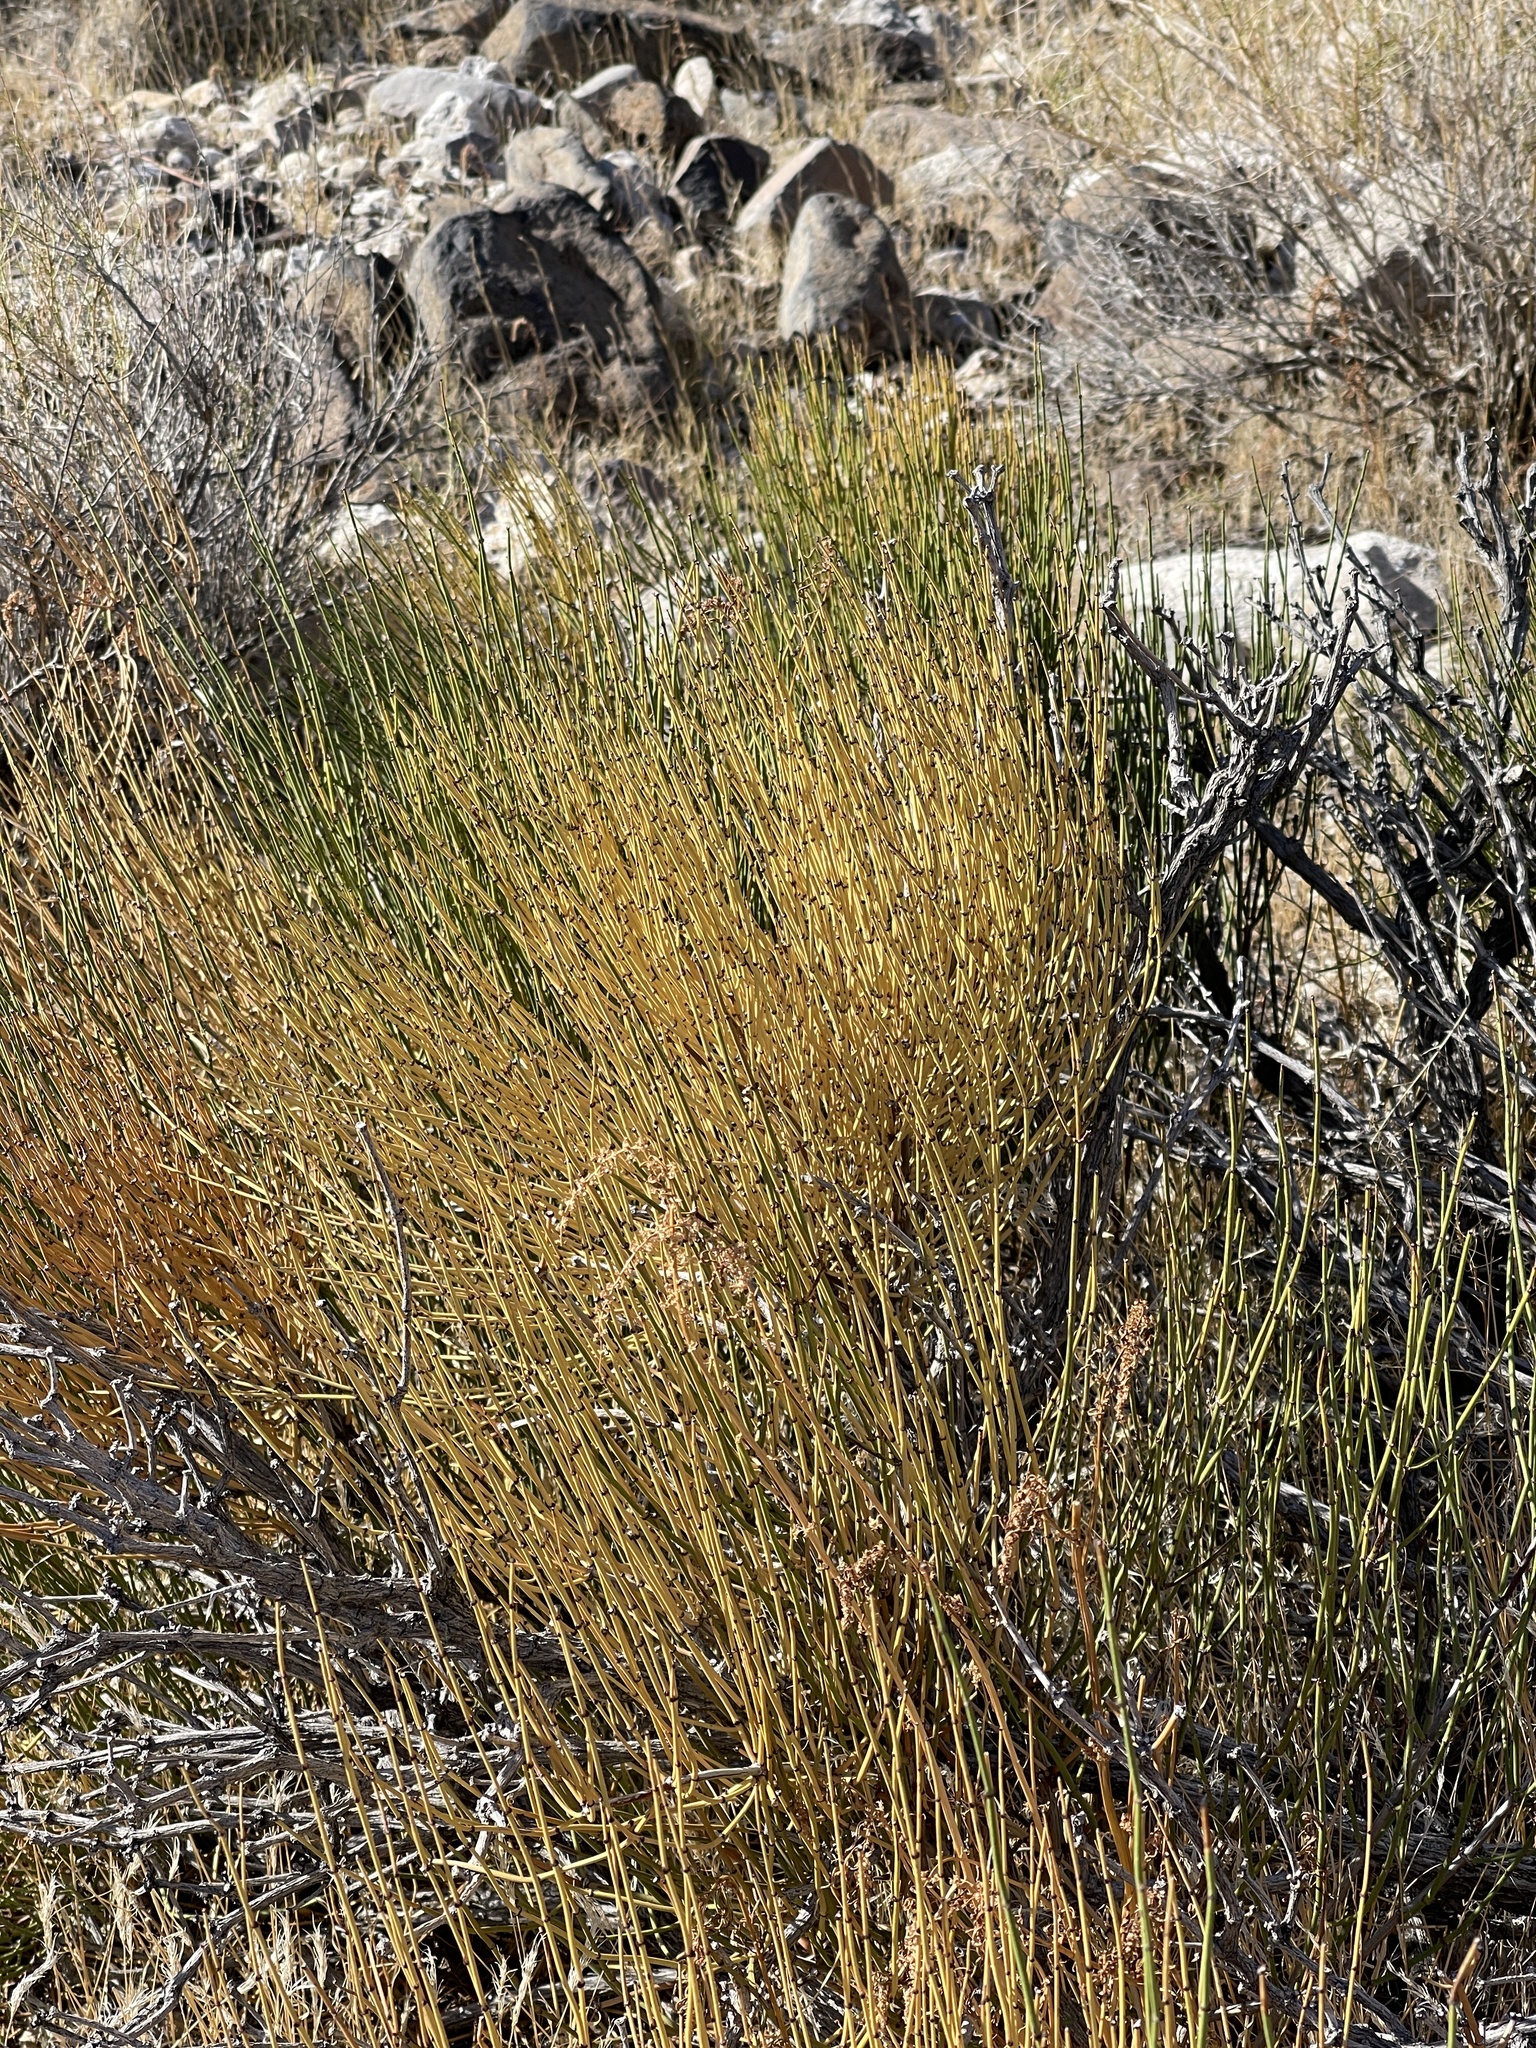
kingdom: Plantae
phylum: Tracheophyta
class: Gnetopsida
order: Ephedrales
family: Ephedraceae
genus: Ephedra
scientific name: Ephedra viridis
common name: Green ephedra
